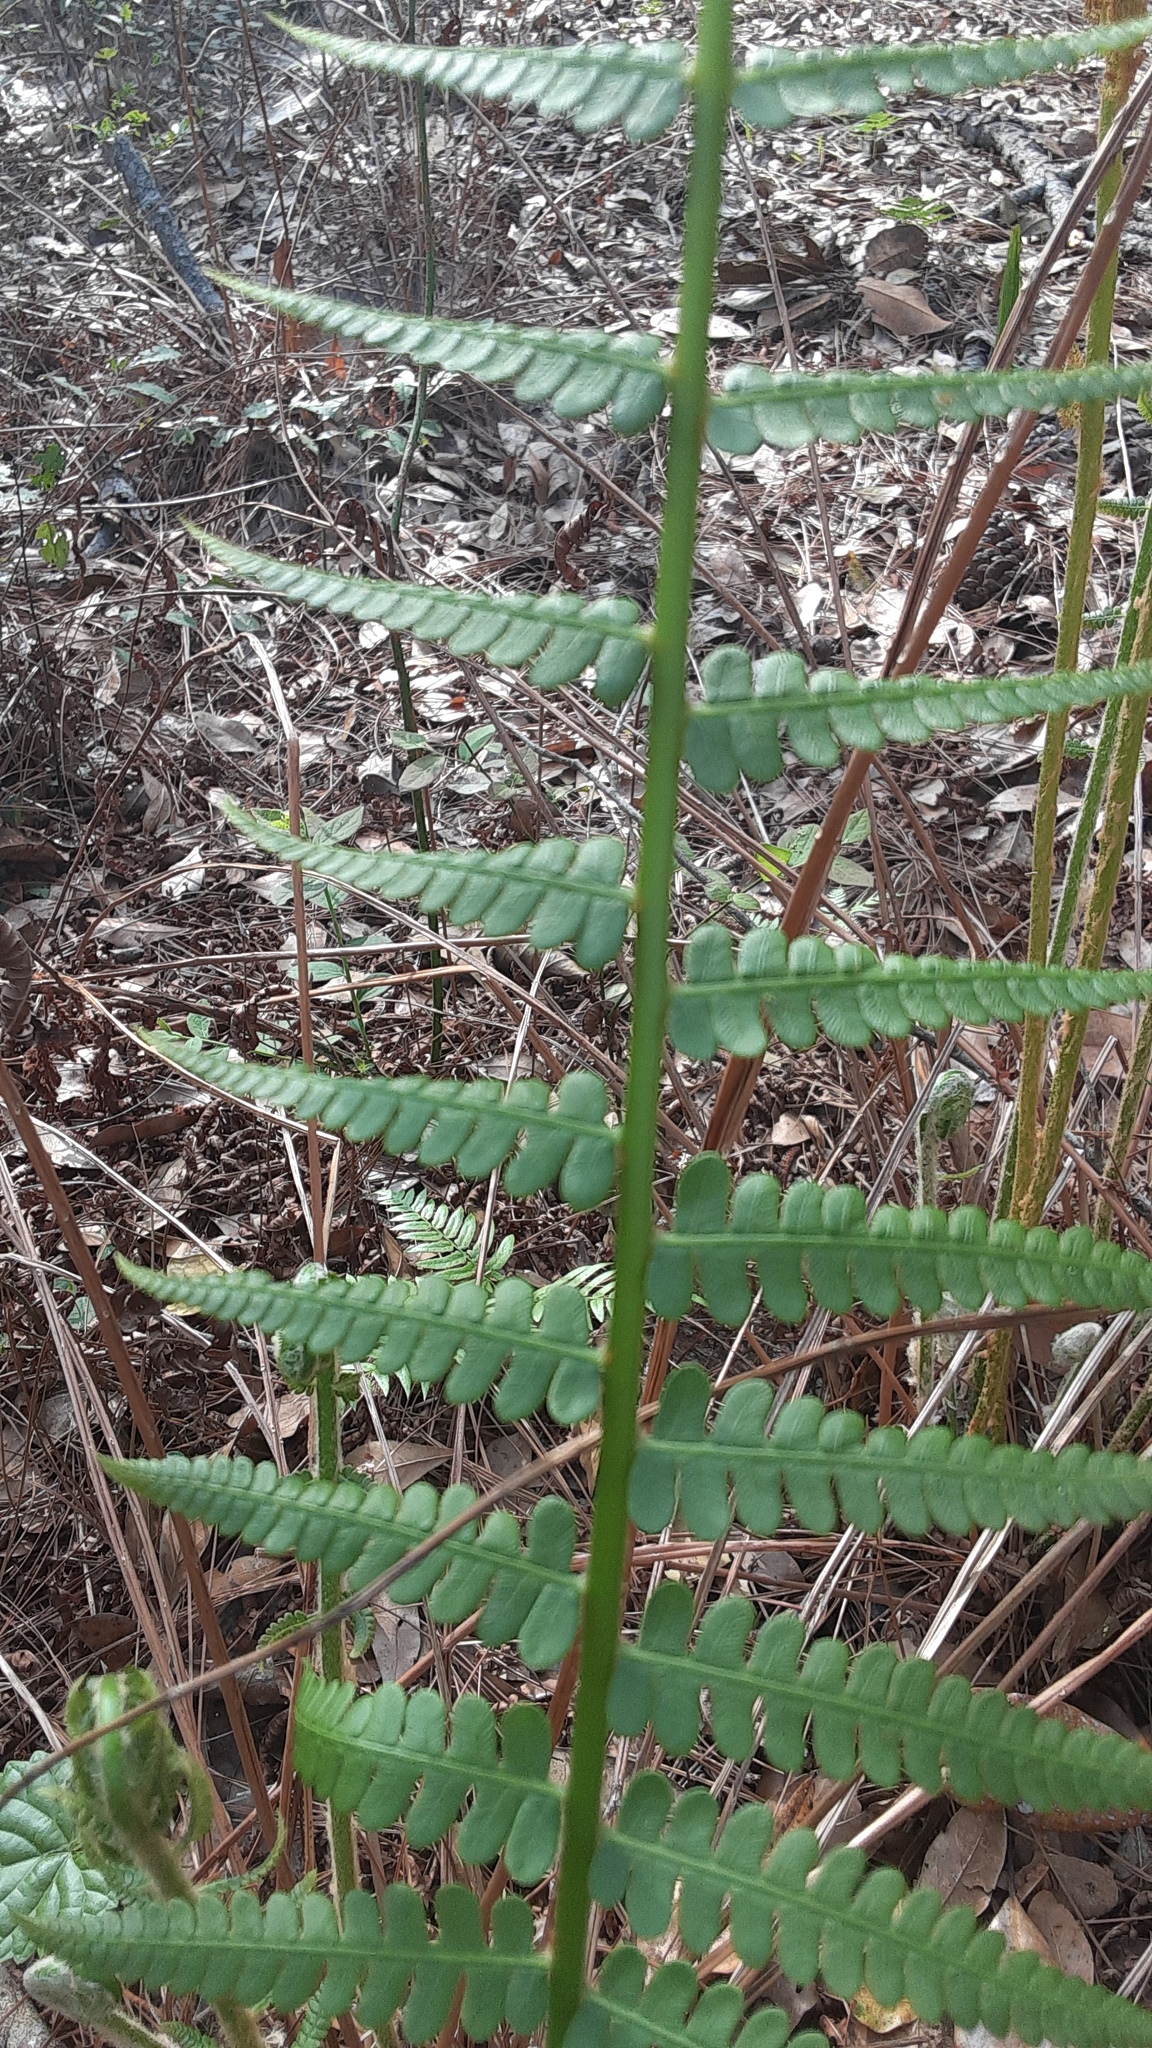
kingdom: Plantae
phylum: Tracheophyta
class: Polypodiopsida
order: Osmundales
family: Osmundaceae
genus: Osmundastrum
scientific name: Osmundastrum cinnamomeum
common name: Cinnamon fern
